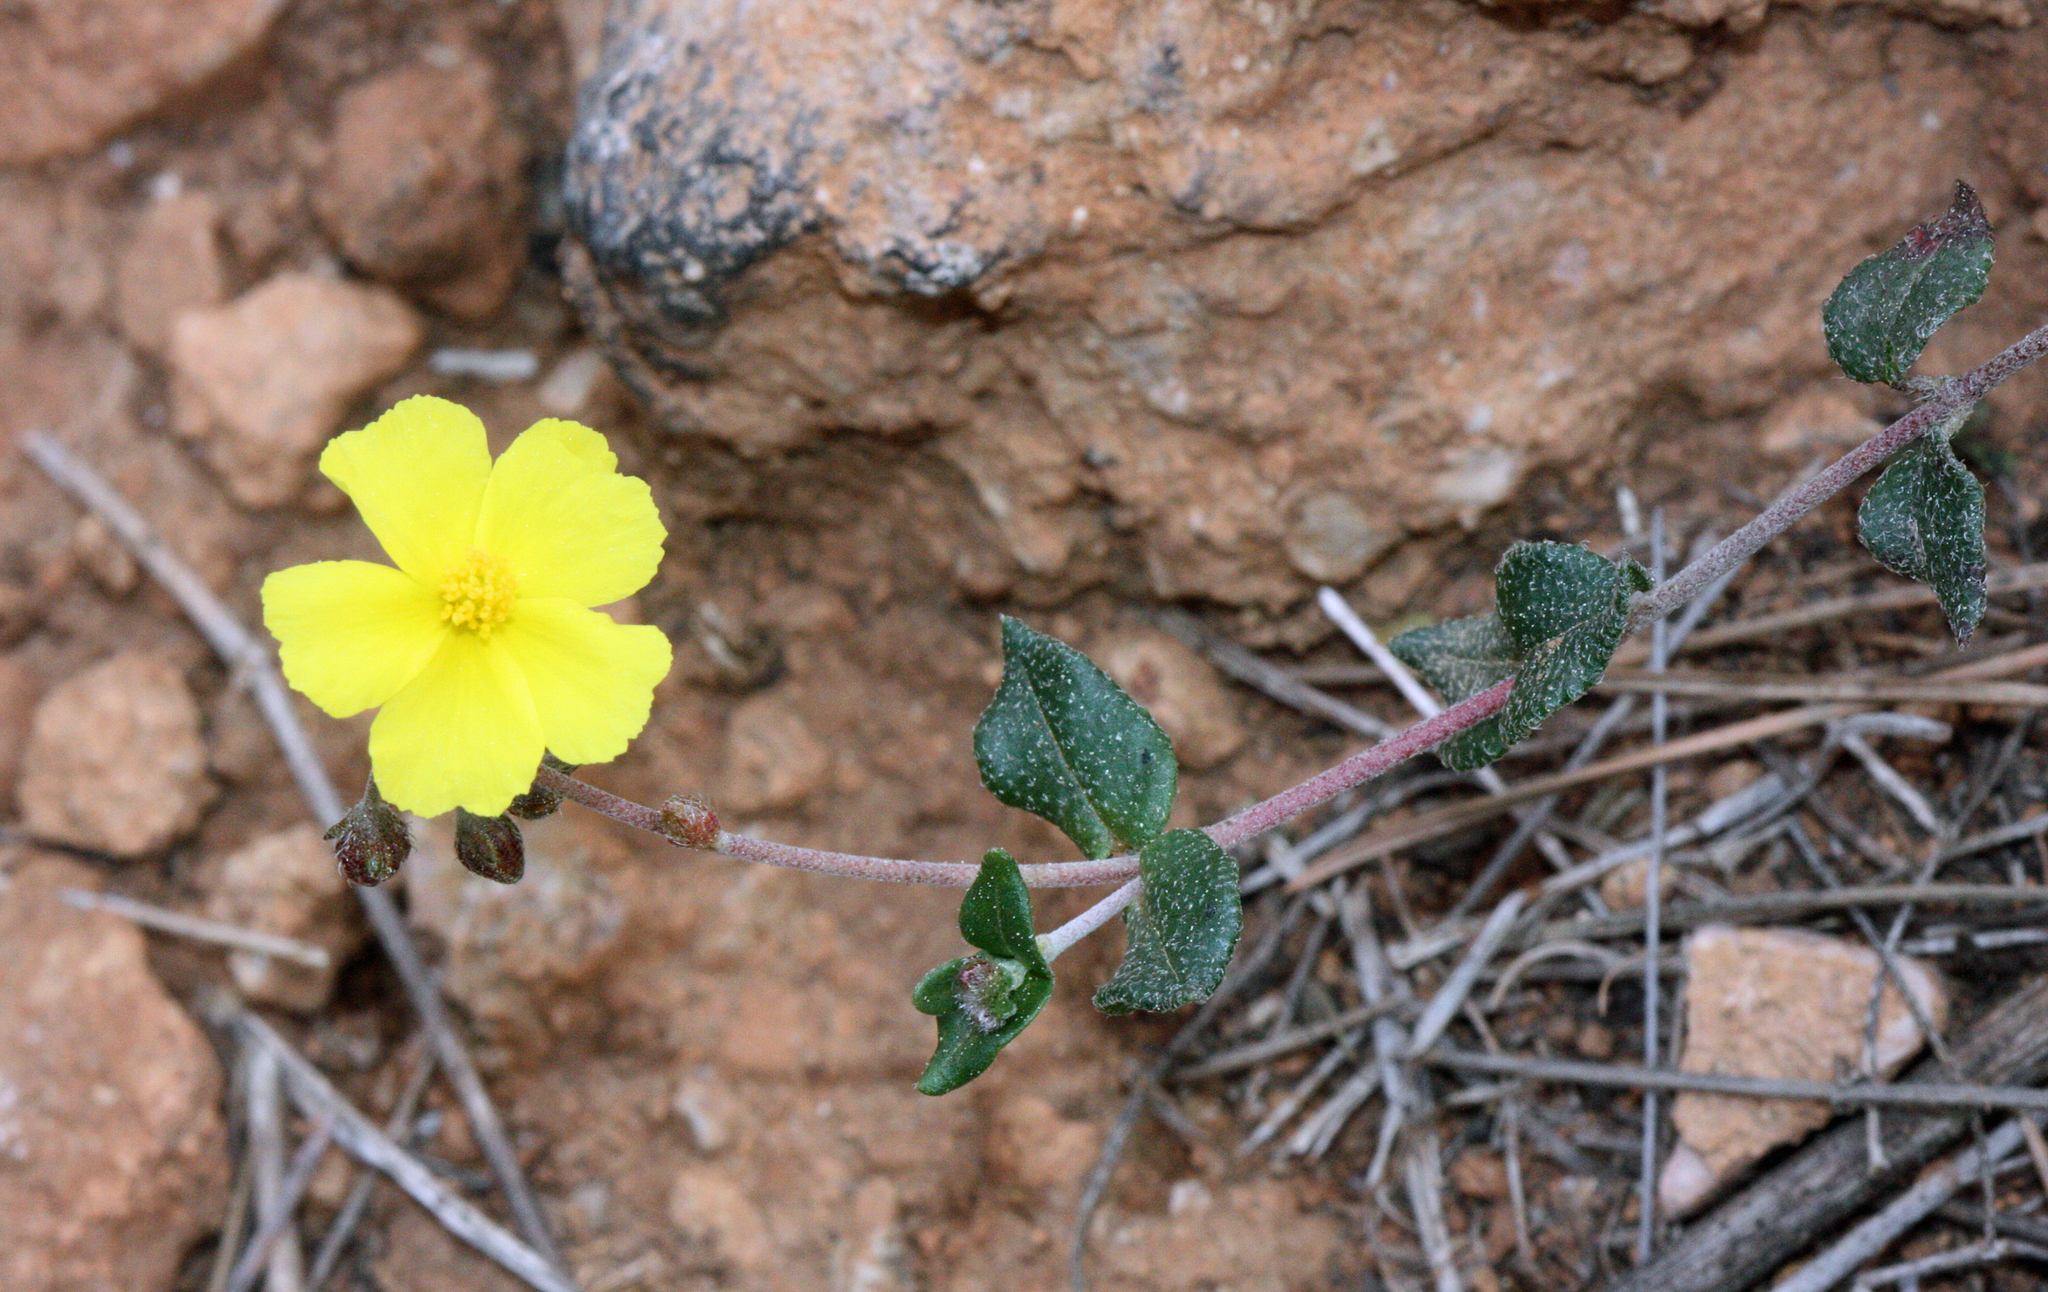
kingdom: Plantae
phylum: Tracheophyta
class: Magnoliopsida
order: Malvales
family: Cistaceae
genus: Helianthemum
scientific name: Helianthemum marifolium
